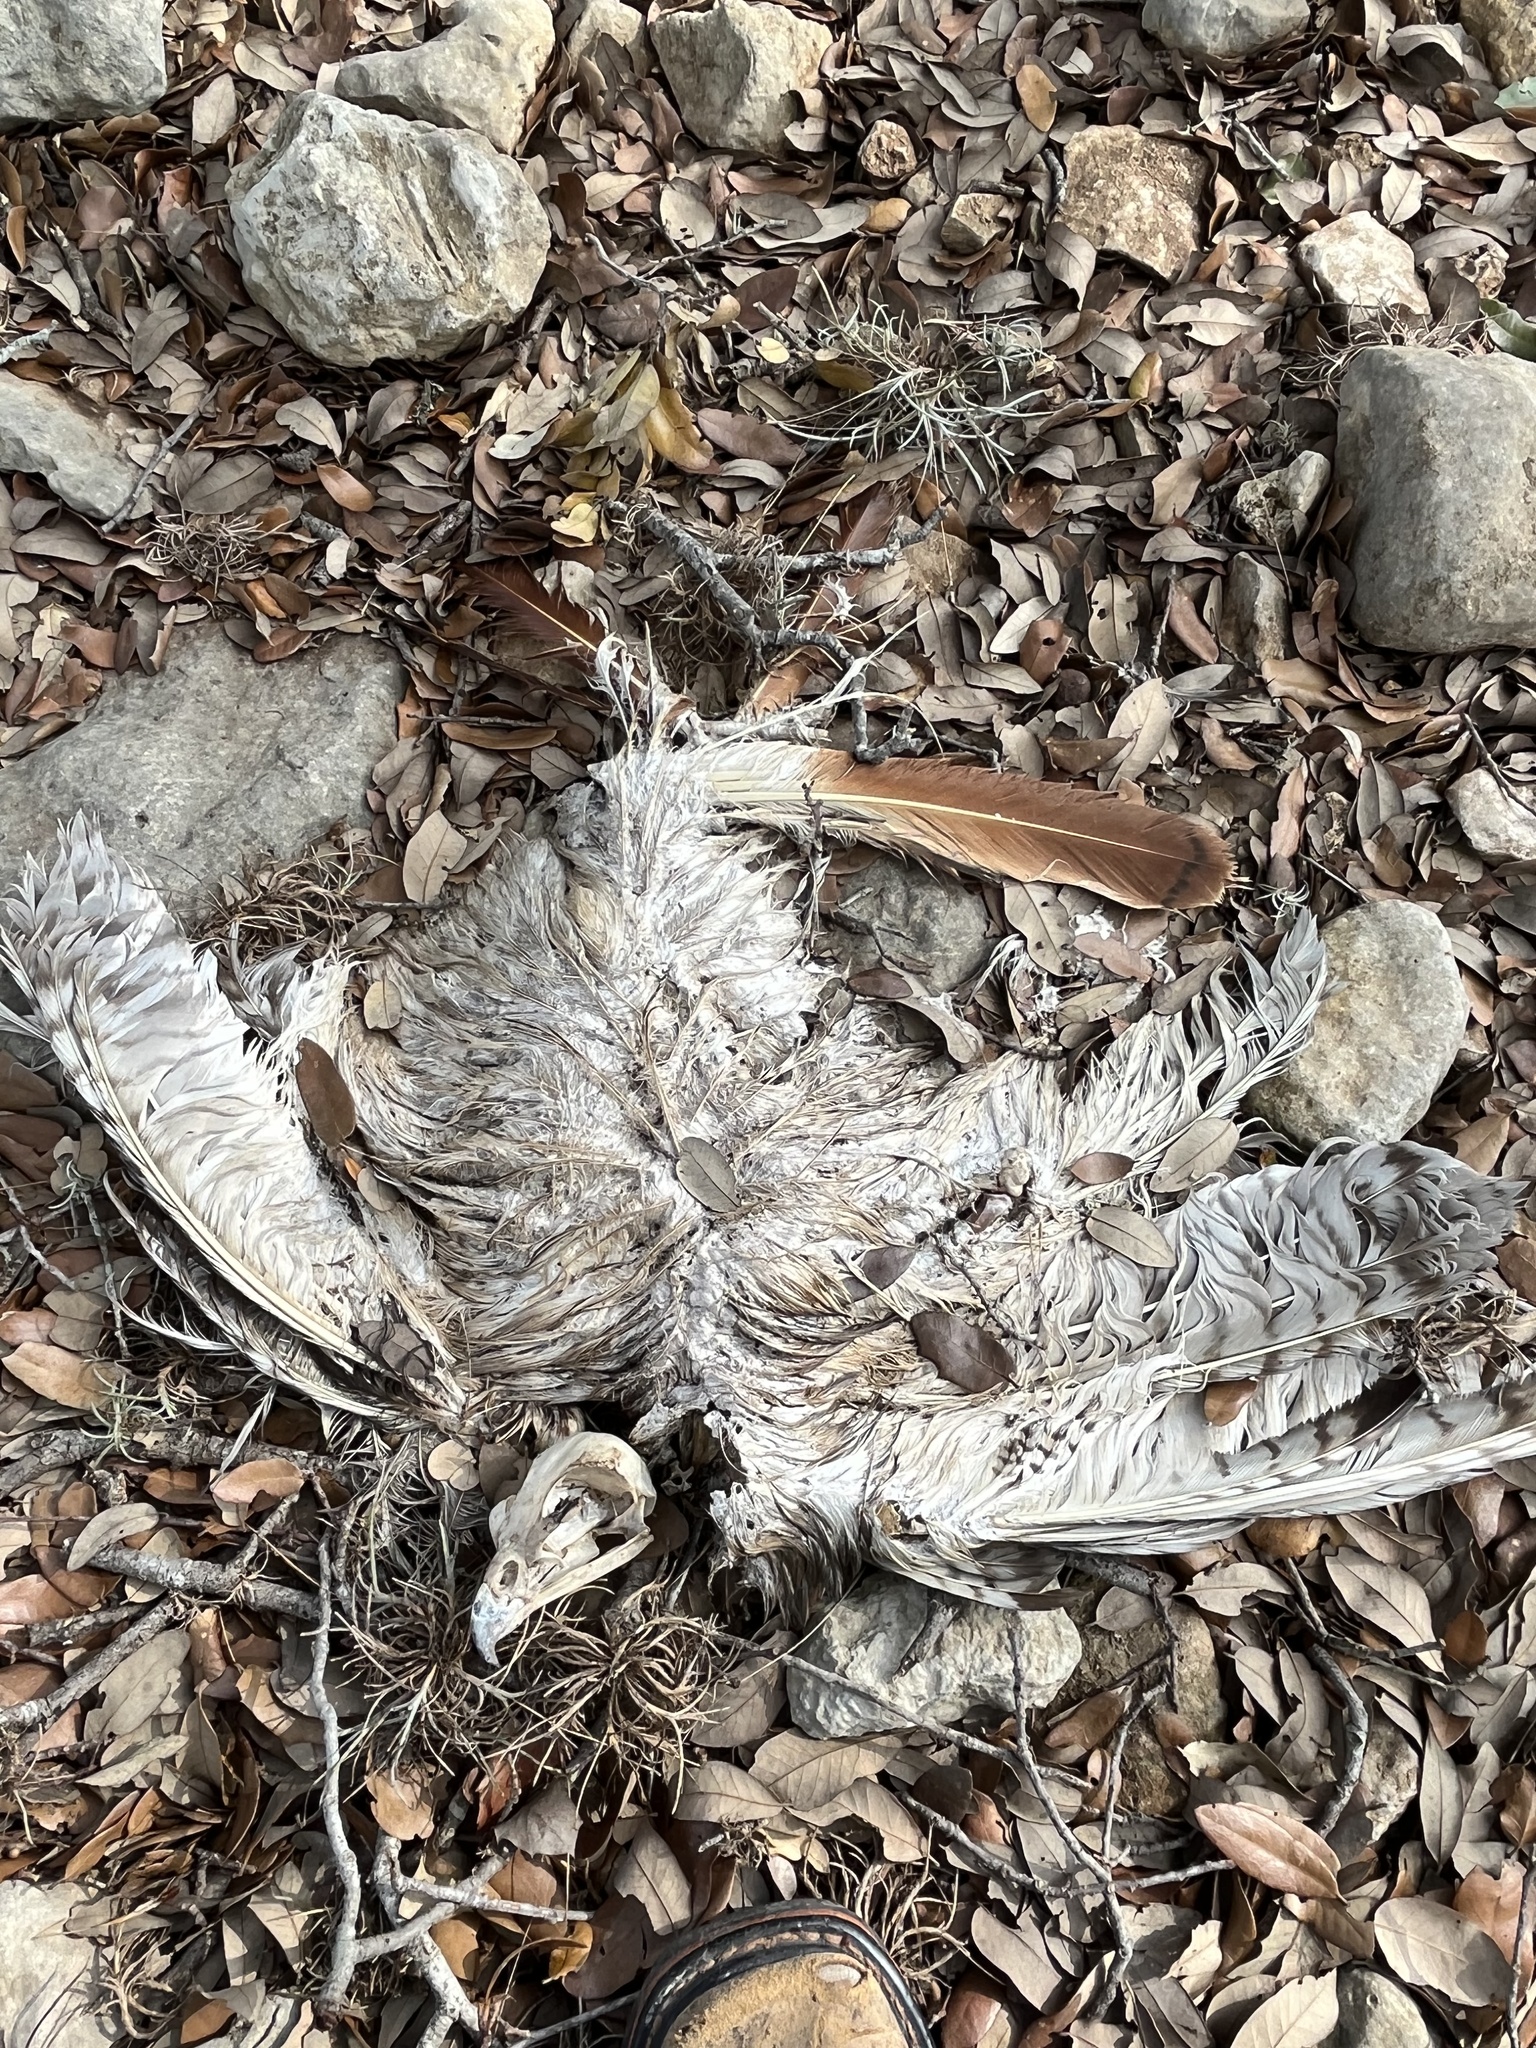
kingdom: Animalia
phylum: Chordata
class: Aves
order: Accipitriformes
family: Accipitridae
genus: Buteo
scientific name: Buteo jamaicensis
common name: Red-tailed hawk
